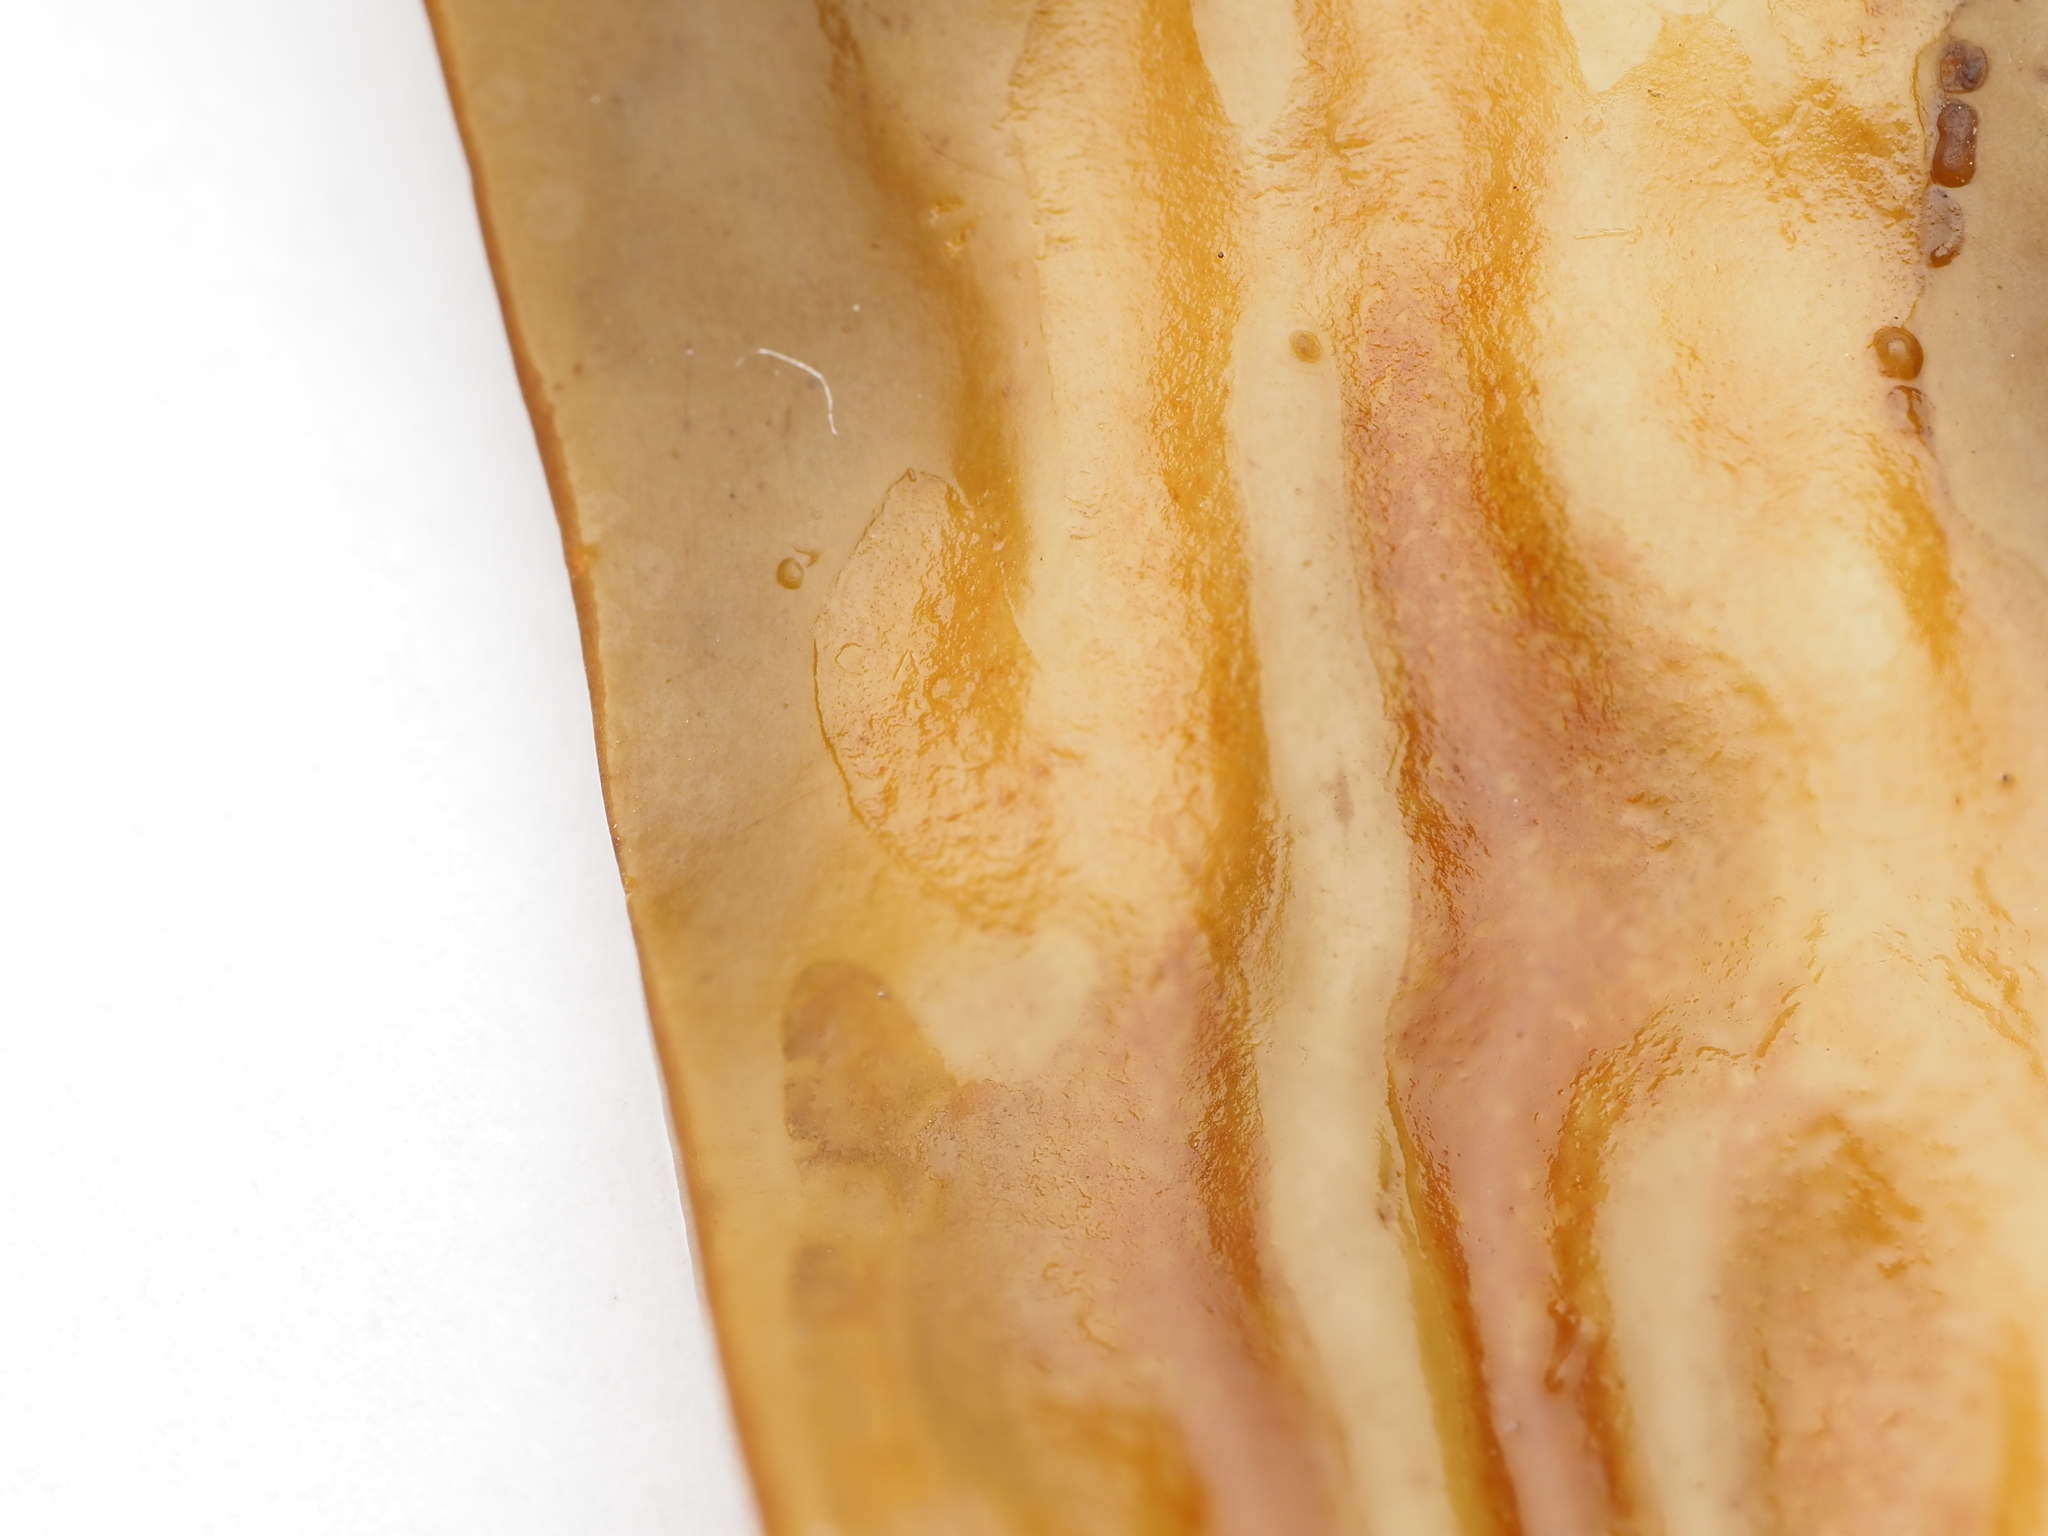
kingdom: Chromista
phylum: Ochrophyta
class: Phaeophyceae
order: Laminariales
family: Lessoniaceae
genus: Ecklonia
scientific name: Ecklonia radiata
